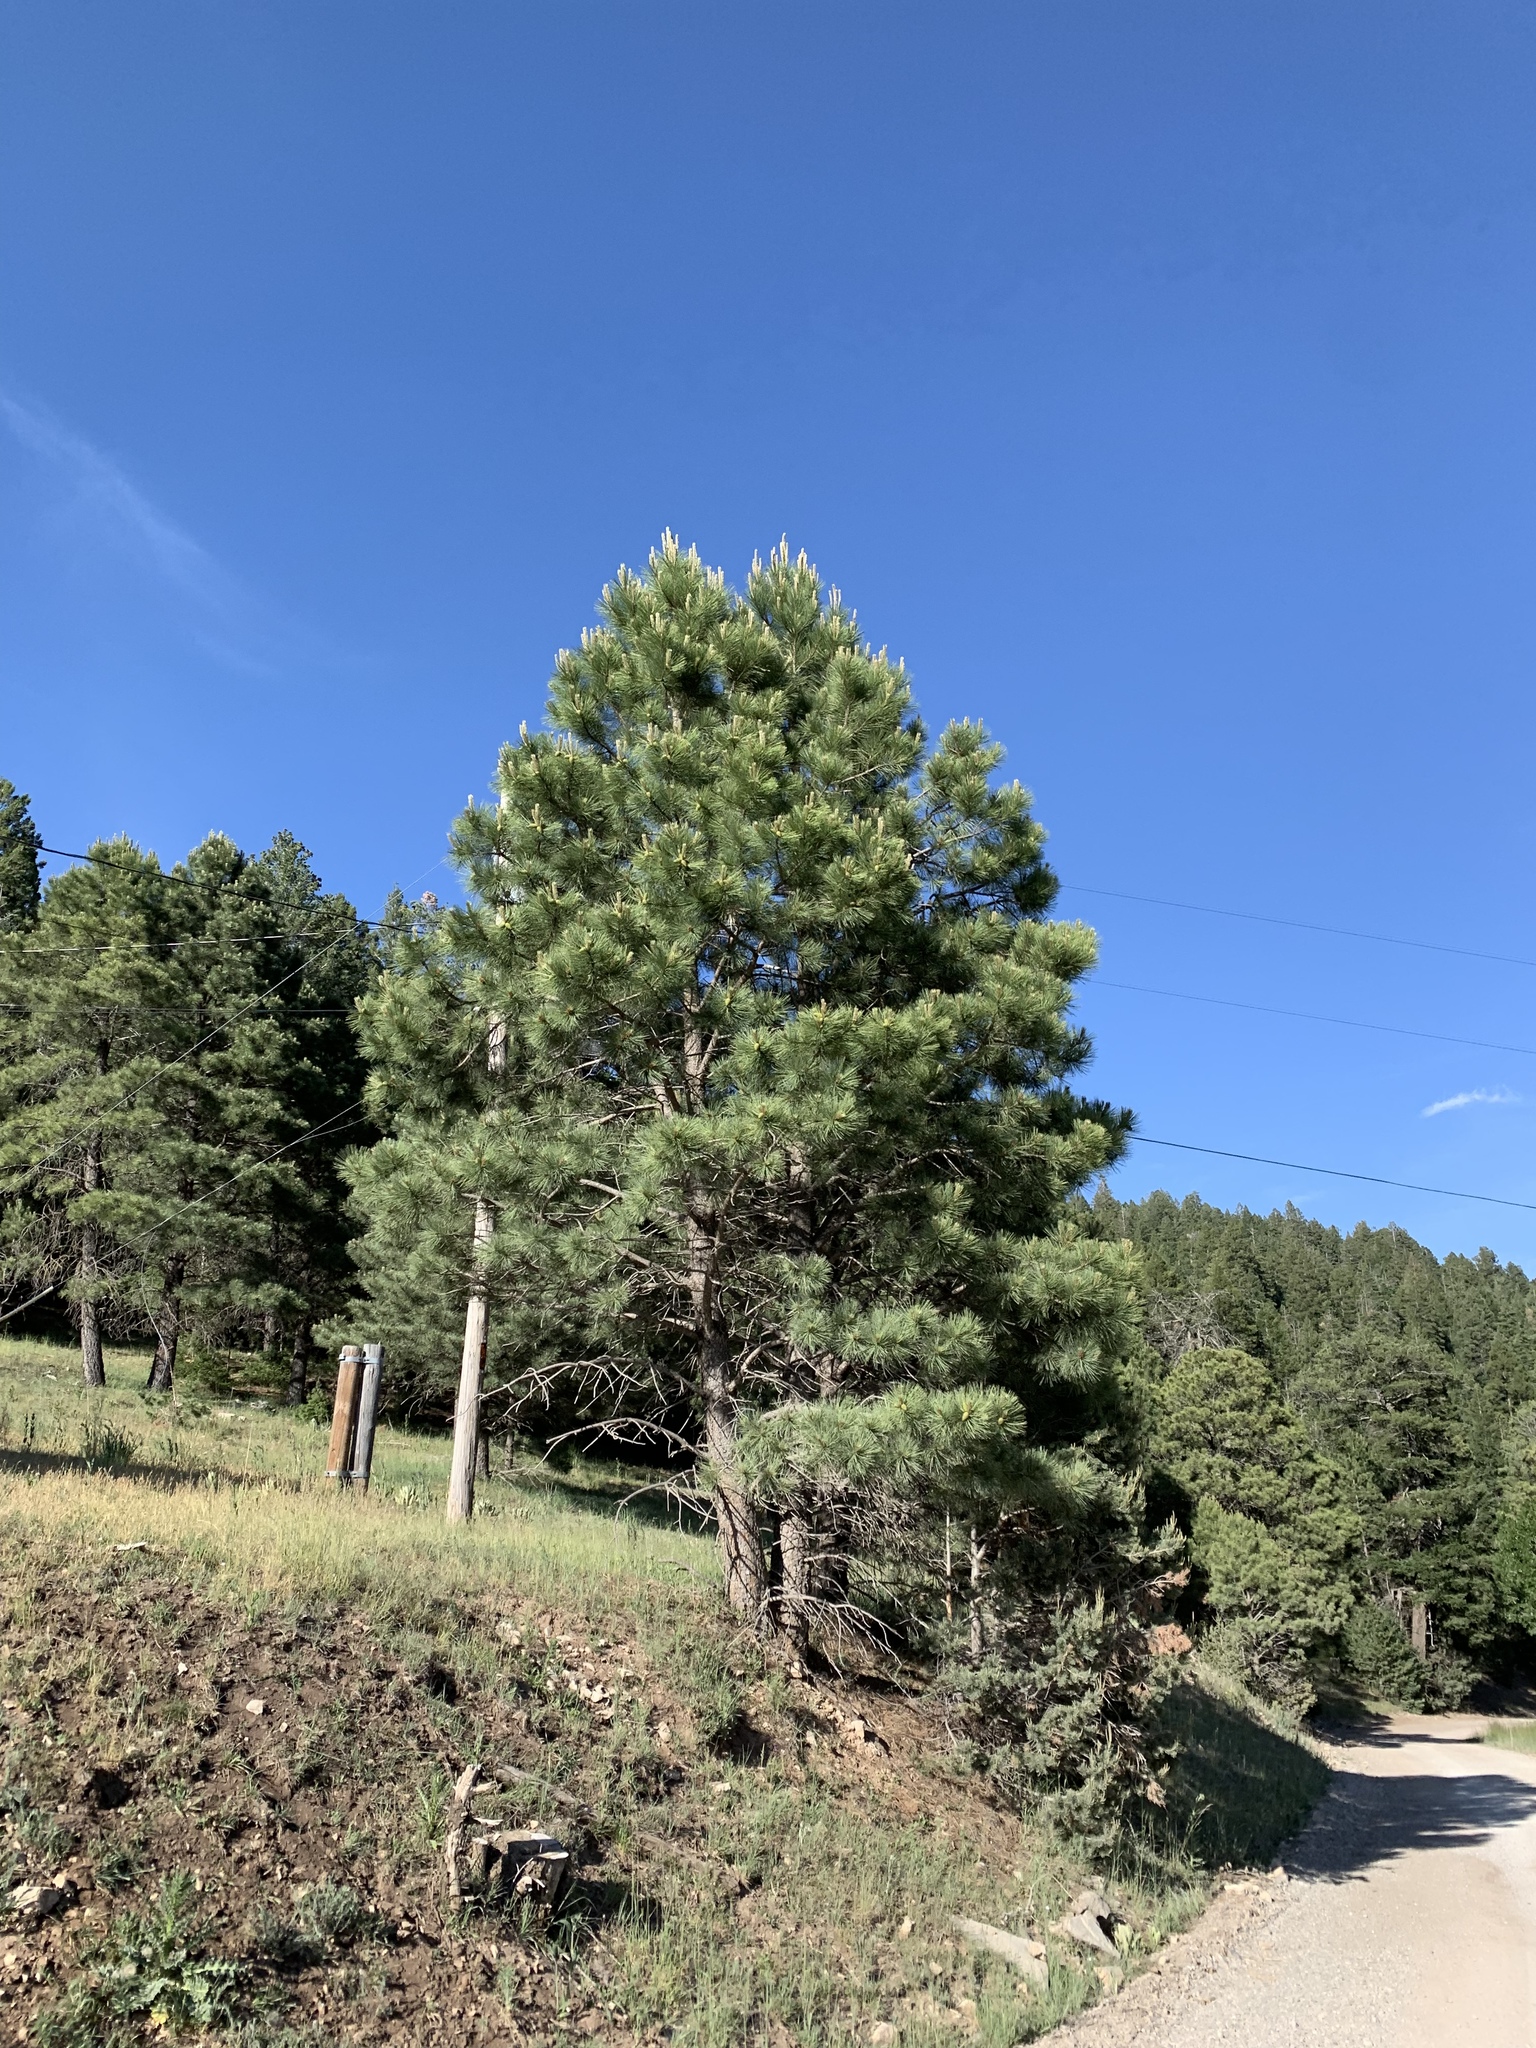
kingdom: Plantae
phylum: Tracheophyta
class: Pinopsida
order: Pinales
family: Pinaceae
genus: Pinus
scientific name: Pinus ponderosa
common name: Western yellow-pine
